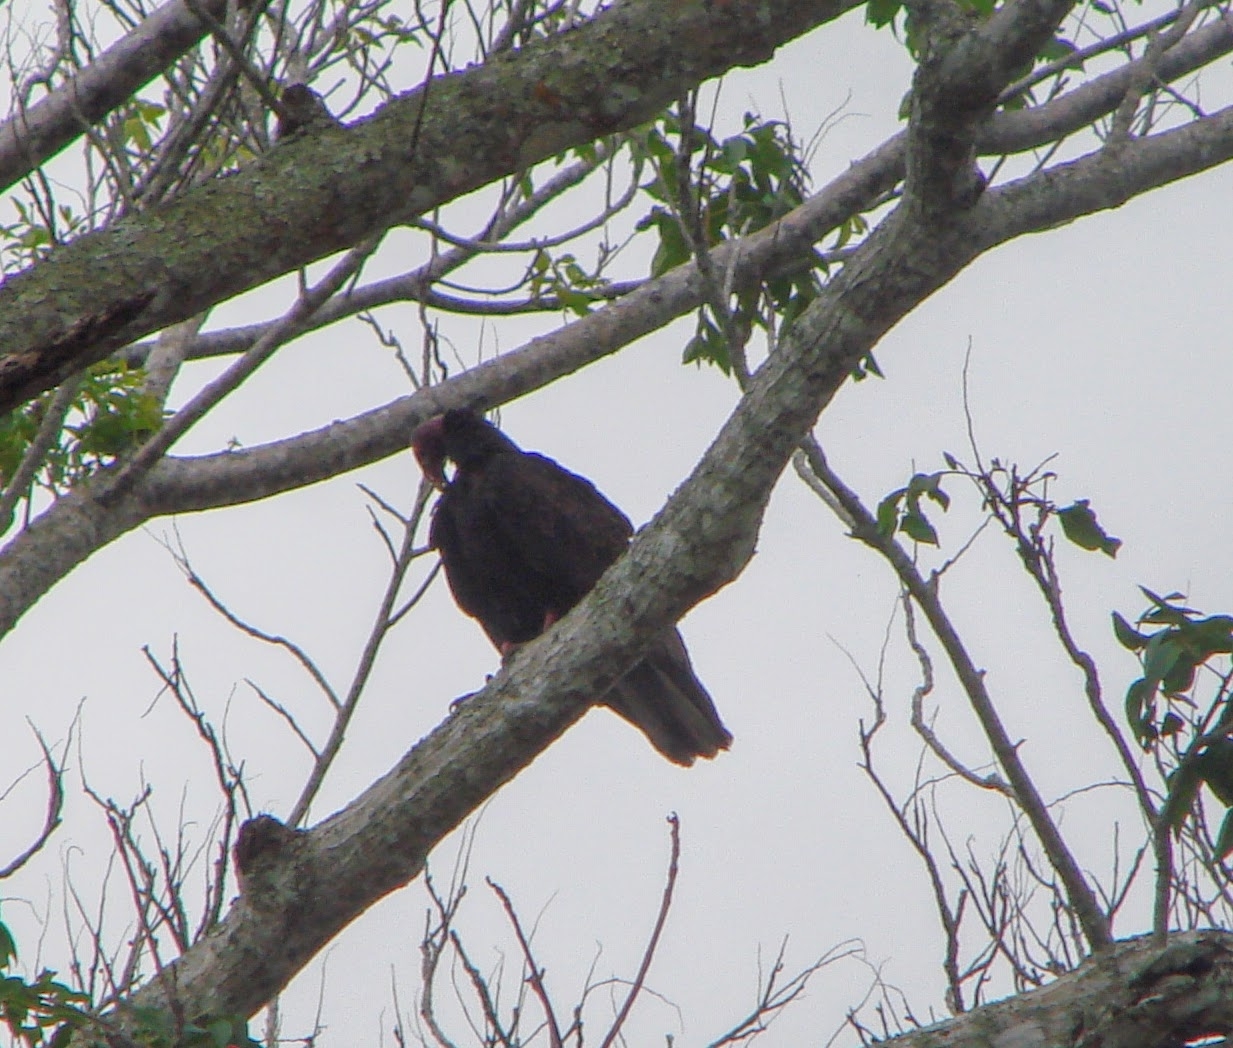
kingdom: Animalia
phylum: Chordata
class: Aves
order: Accipitriformes
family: Cathartidae
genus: Cathartes
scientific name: Cathartes aura
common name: Turkey vulture
